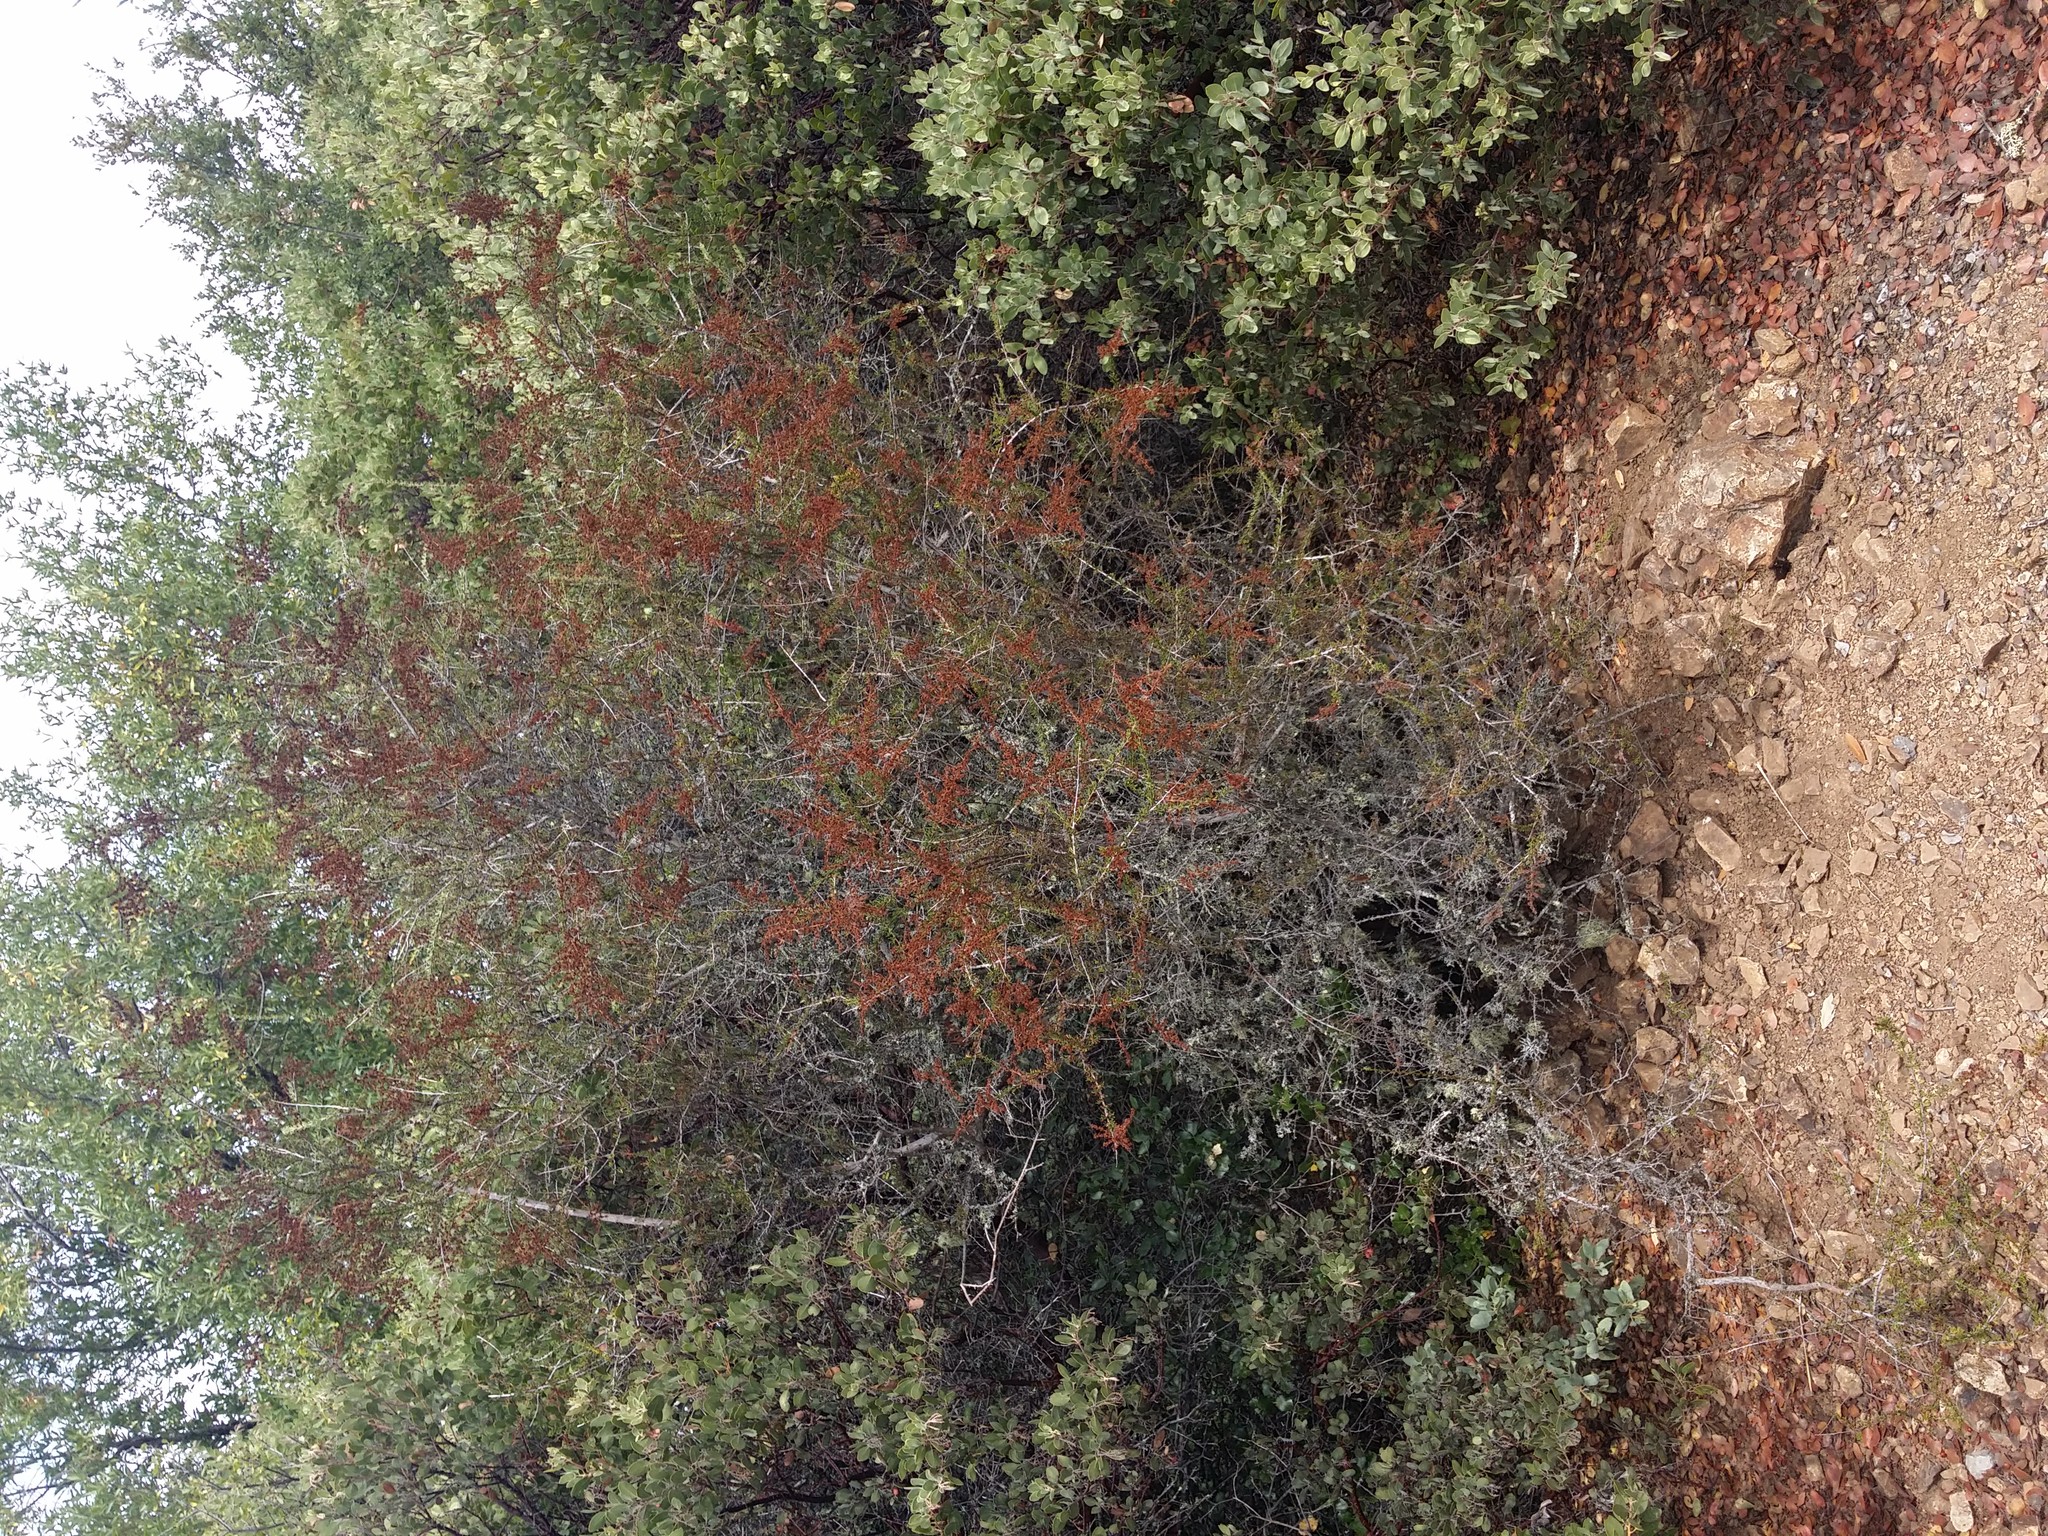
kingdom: Plantae
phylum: Tracheophyta
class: Magnoliopsida
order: Rosales
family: Rosaceae
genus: Adenostoma
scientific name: Adenostoma fasciculatum
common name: Chamise
